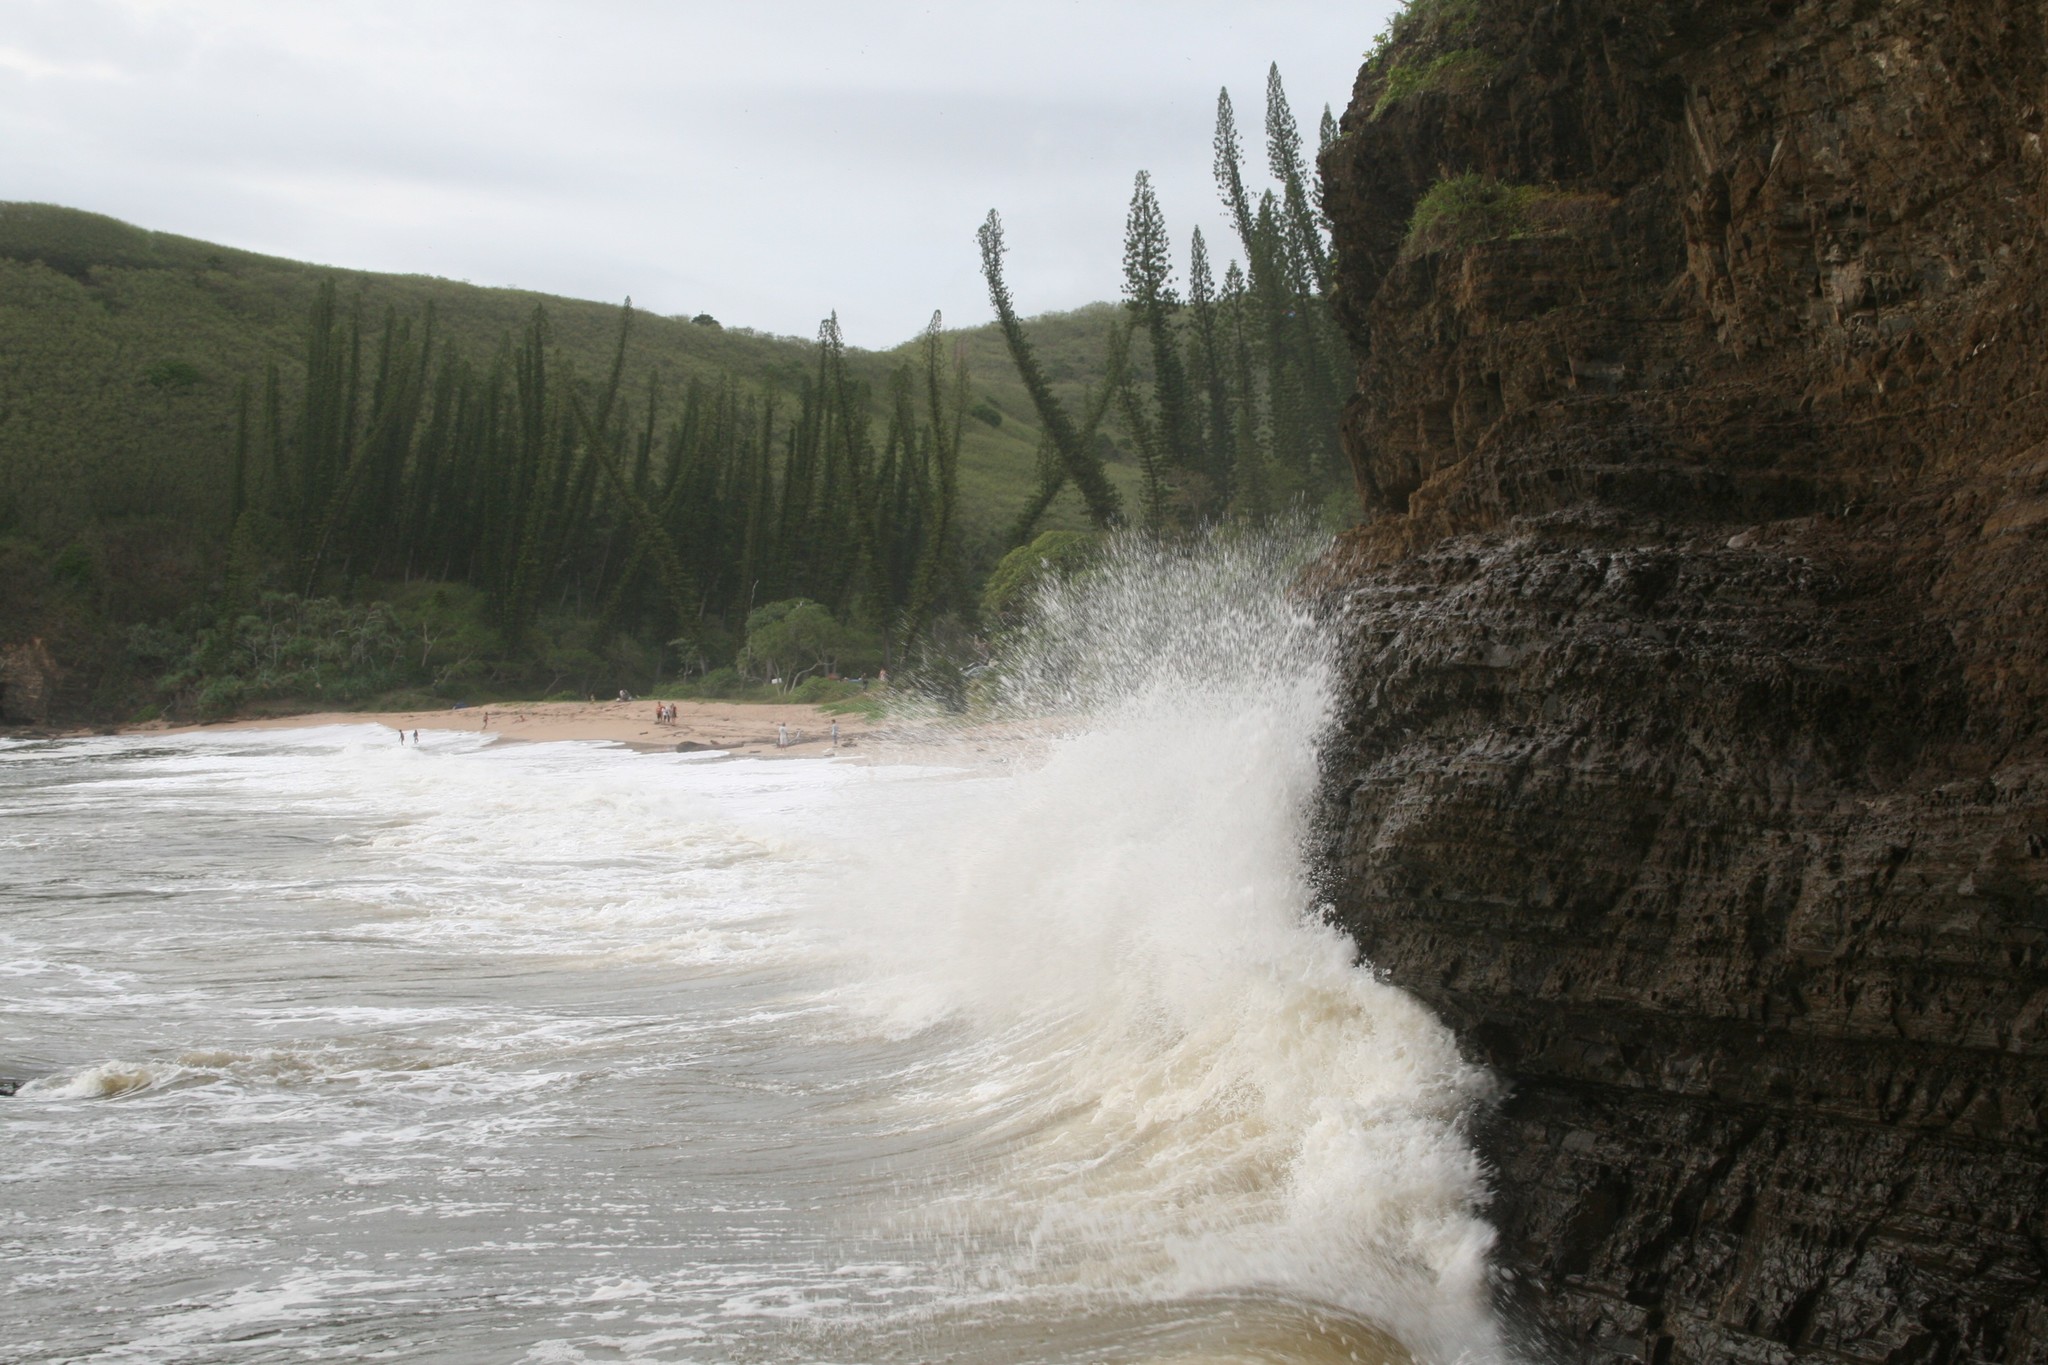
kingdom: Plantae
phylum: Tracheophyta
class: Pinopsida
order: Pinales
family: Araucariaceae
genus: Araucaria
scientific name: Araucaria columnaris
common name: Coral reef araucaria
